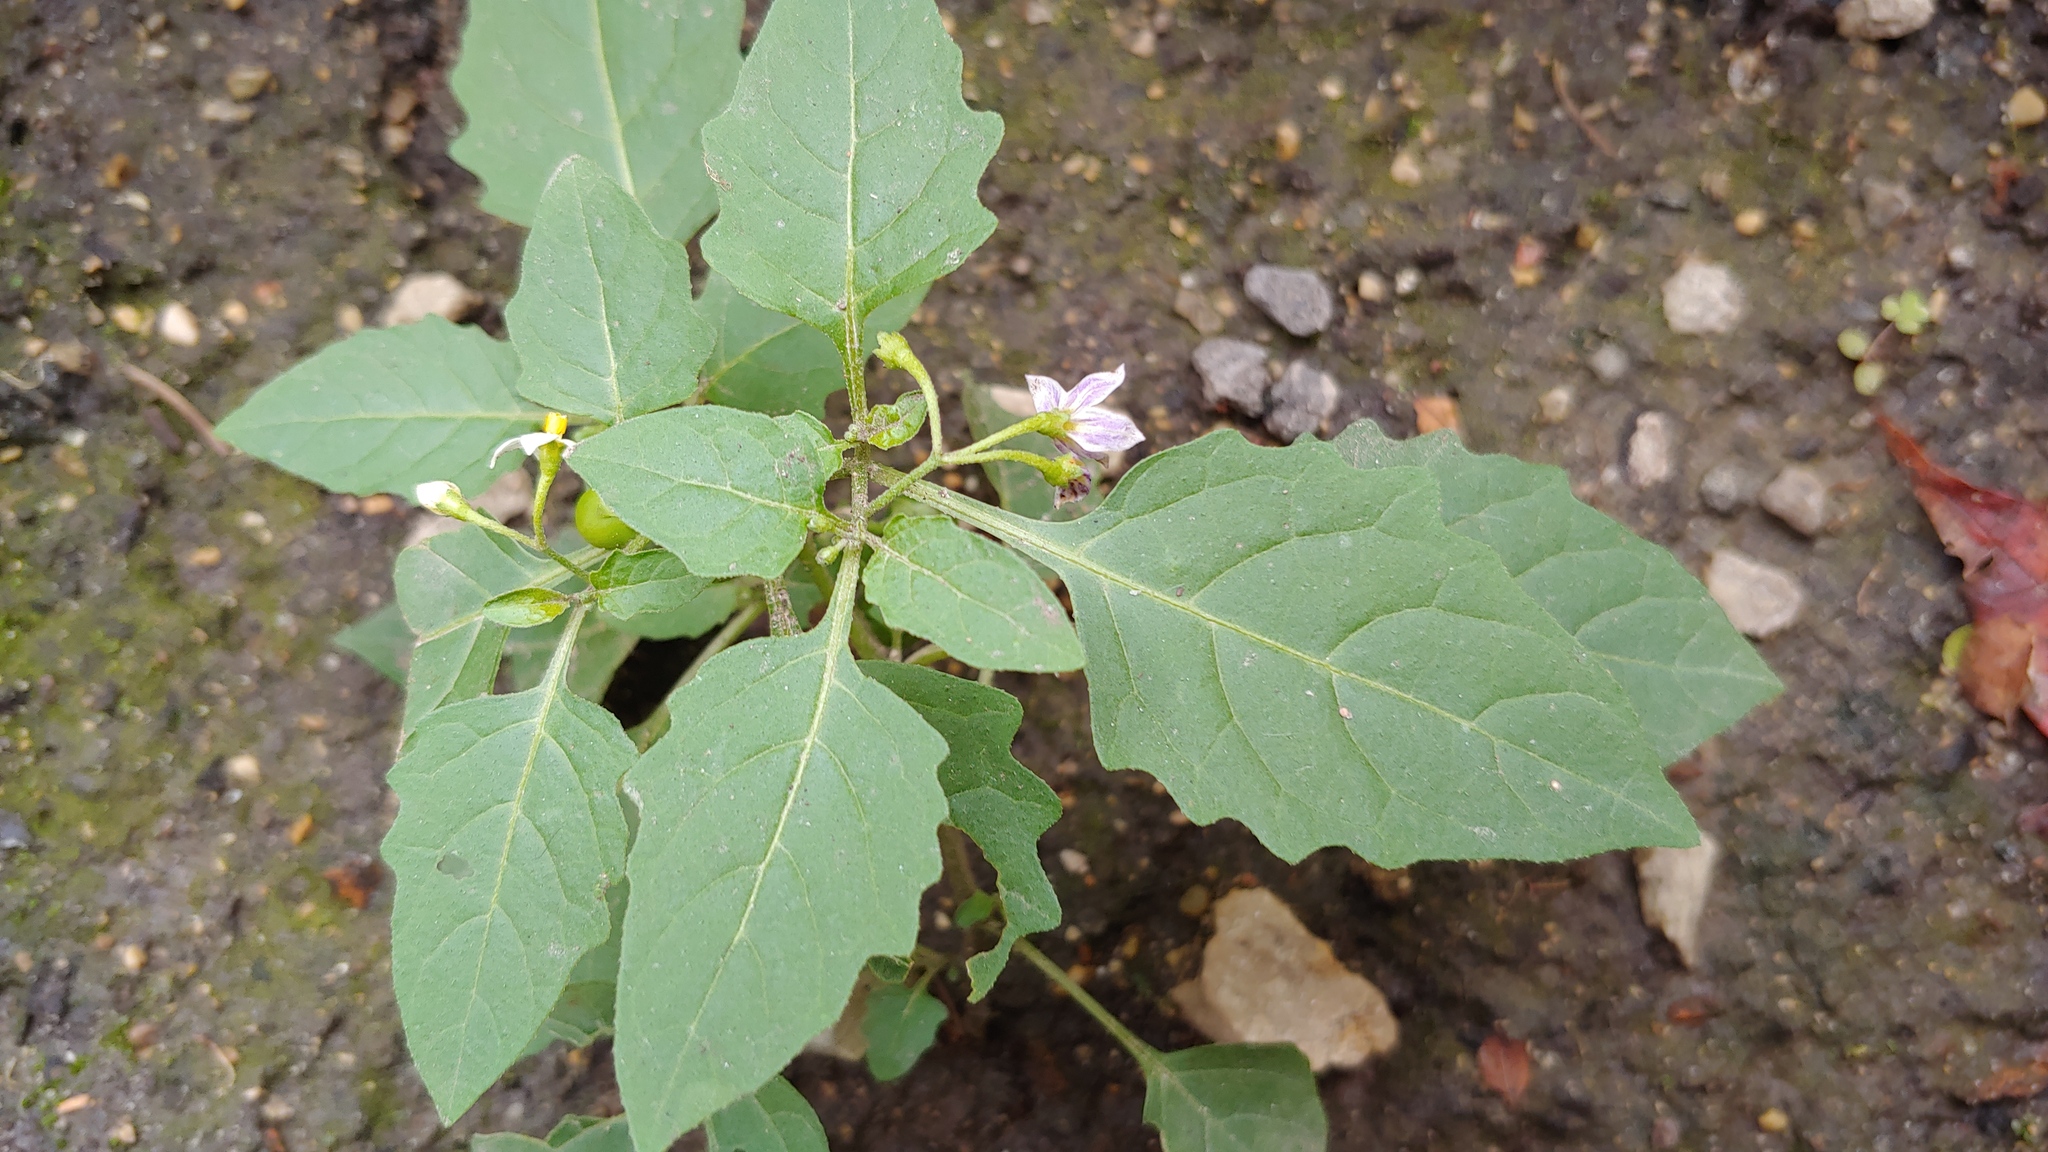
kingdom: Plantae
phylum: Tracheophyta
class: Magnoliopsida
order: Solanales
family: Solanaceae
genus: Solanum
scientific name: Solanum emulans
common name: Eastern black nightshade
